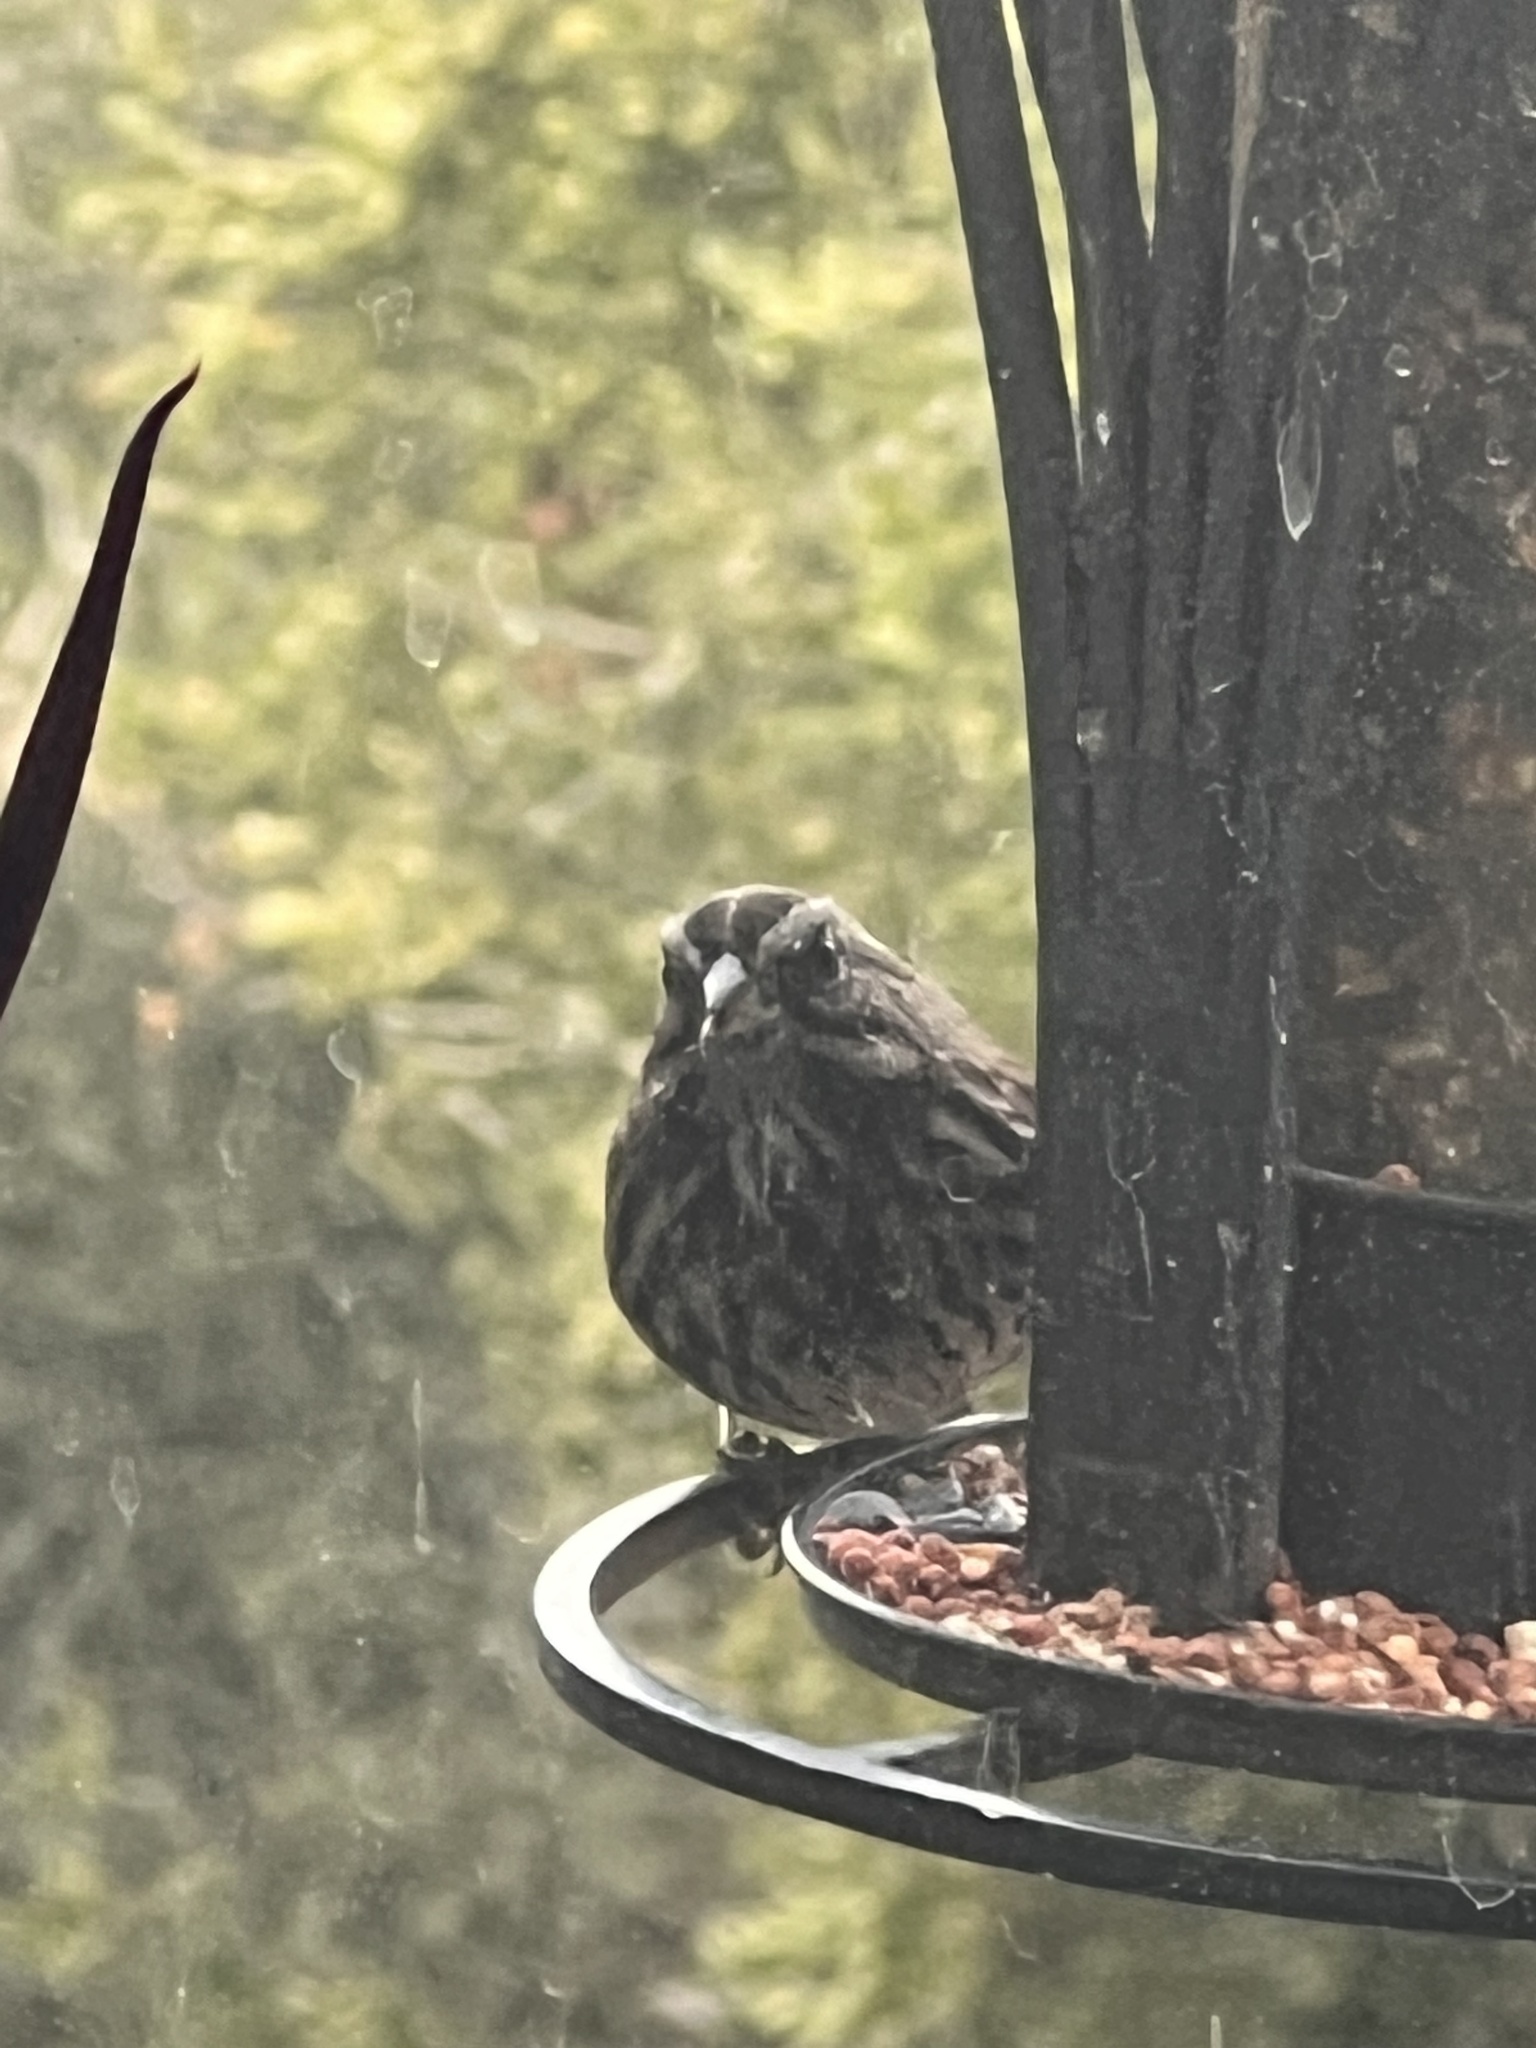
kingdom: Animalia
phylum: Chordata
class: Aves
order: Passeriformes
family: Passerellidae
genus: Melospiza
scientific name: Melospiza melodia
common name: Song sparrow
